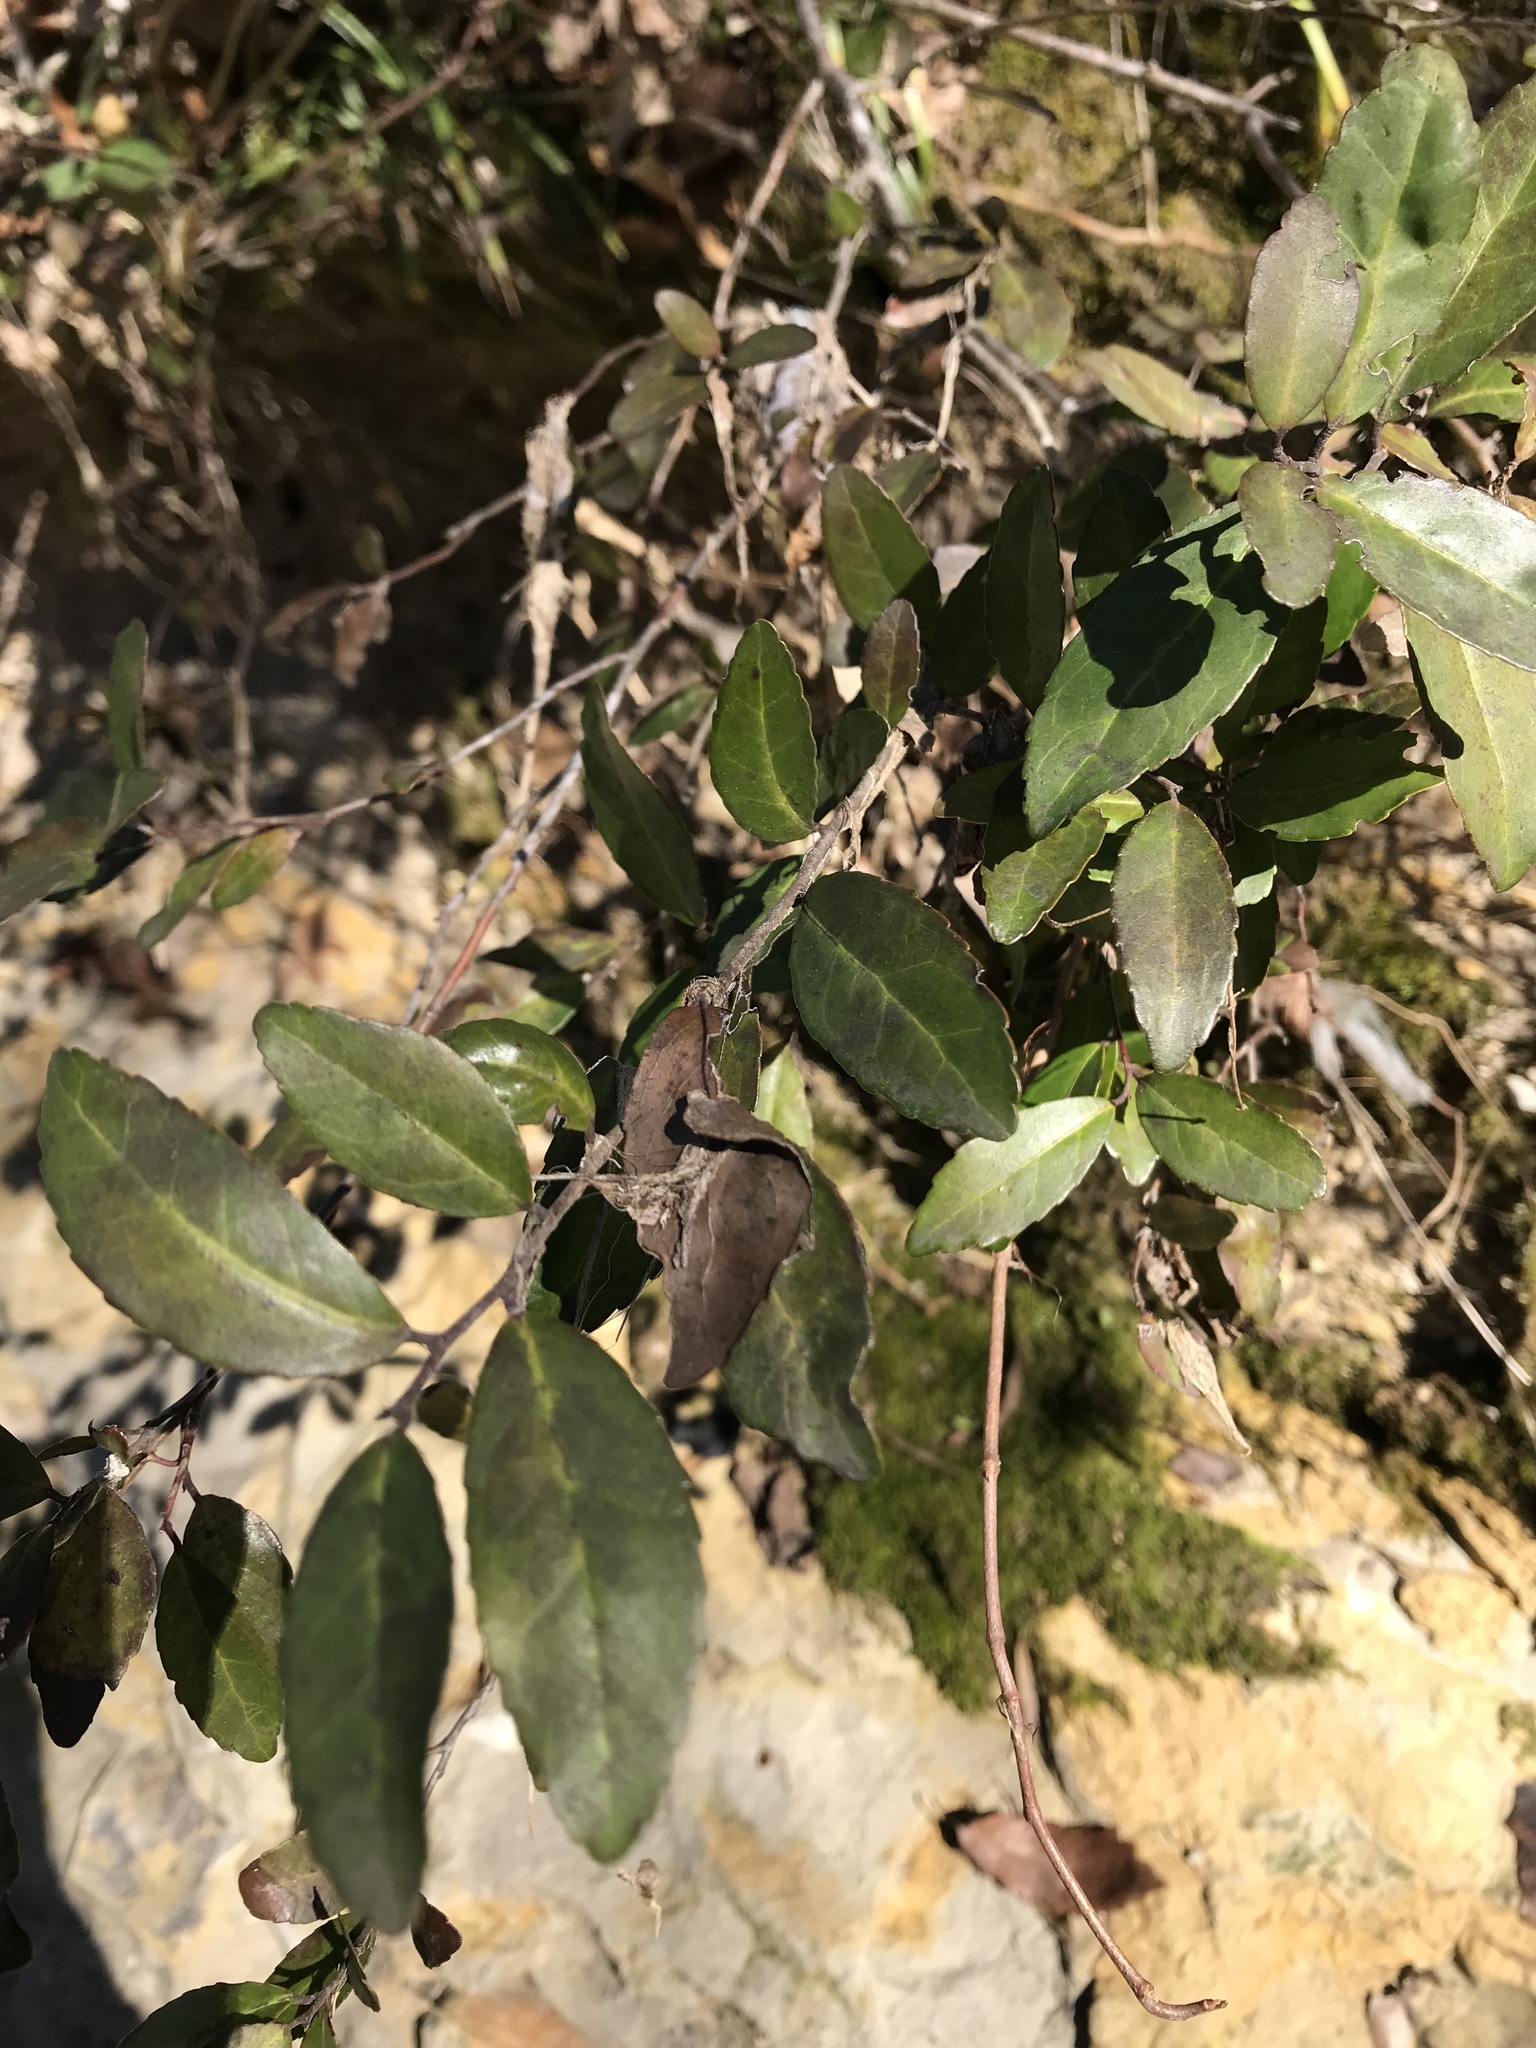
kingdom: Plantae
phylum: Tracheophyta
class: Magnoliopsida
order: Aquifoliales
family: Aquifoliaceae
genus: Ilex
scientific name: Ilex vomitoria
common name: Yaupon holly
